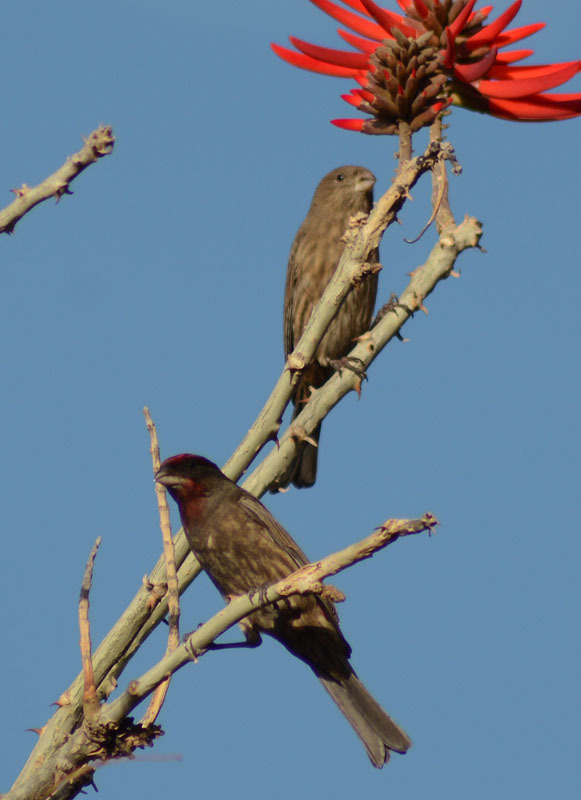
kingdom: Animalia
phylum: Chordata
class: Aves
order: Passeriformes
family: Fringillidae
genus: Haemorhous
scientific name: Haemorhous mexicanus
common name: House finch
